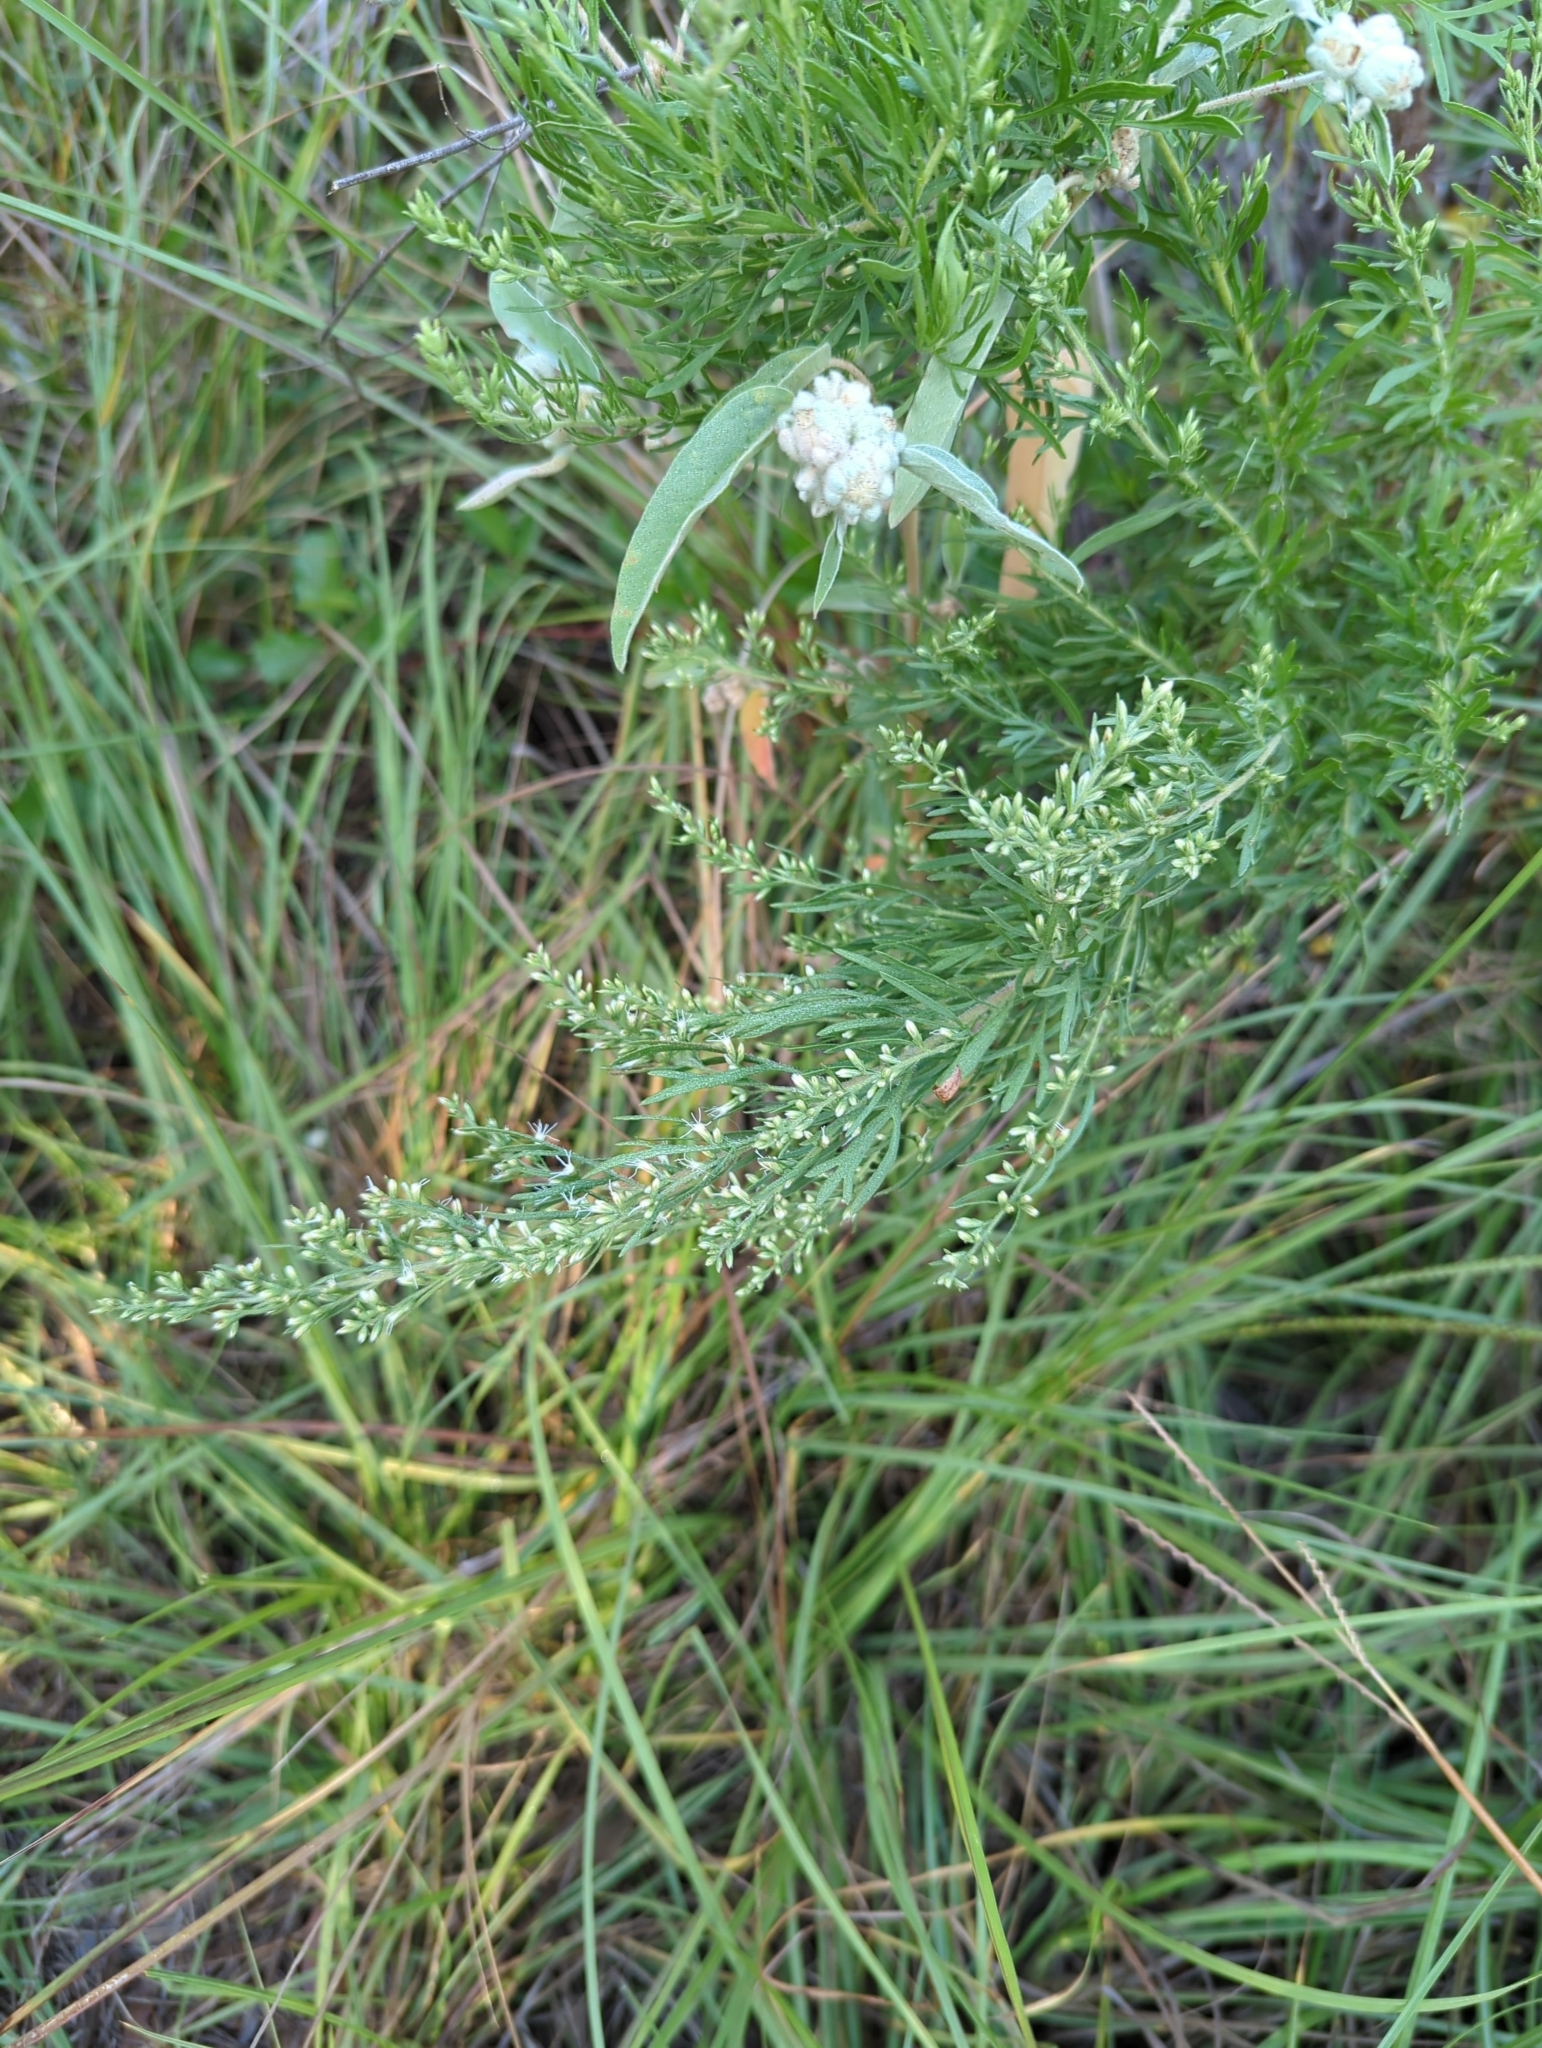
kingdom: Plantae
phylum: Tracheophyta
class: Magnoliopsida
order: Asterales
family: Asteraceae
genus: Eupatorium
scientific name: Eupatorium compositifolium
